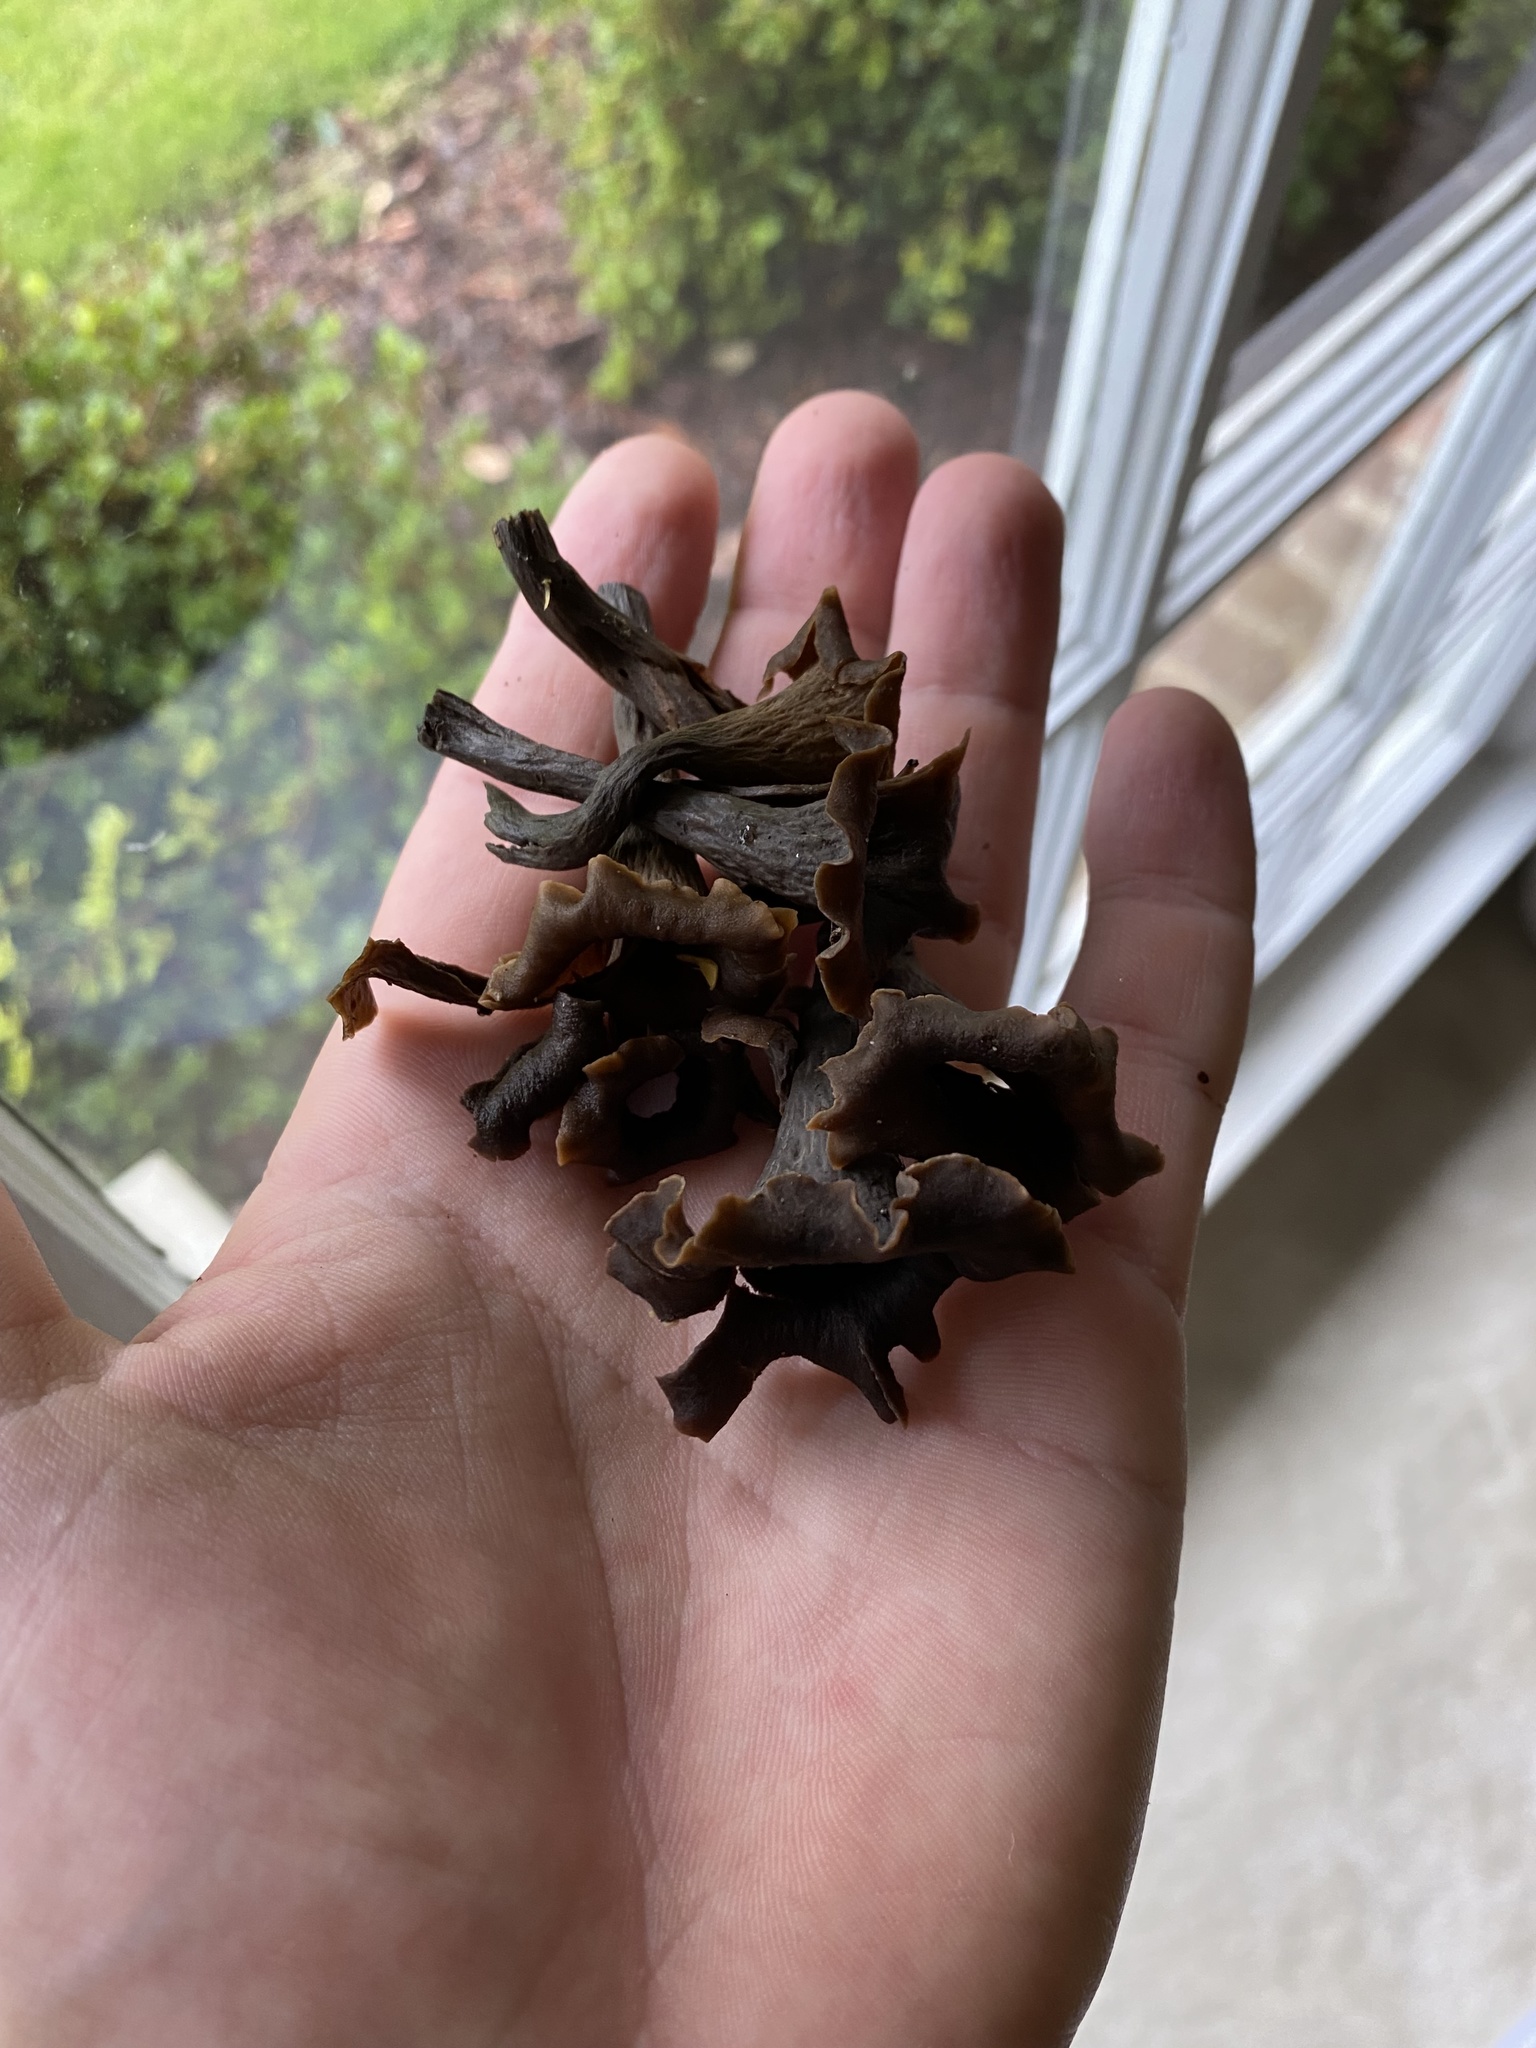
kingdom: Fungi
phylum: Basidiomycota
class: Agaricomycetes
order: Cantharellales
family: Hydnaceae
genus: Craterellus
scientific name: Craterellus cornucopioides
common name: Horn of plenty
